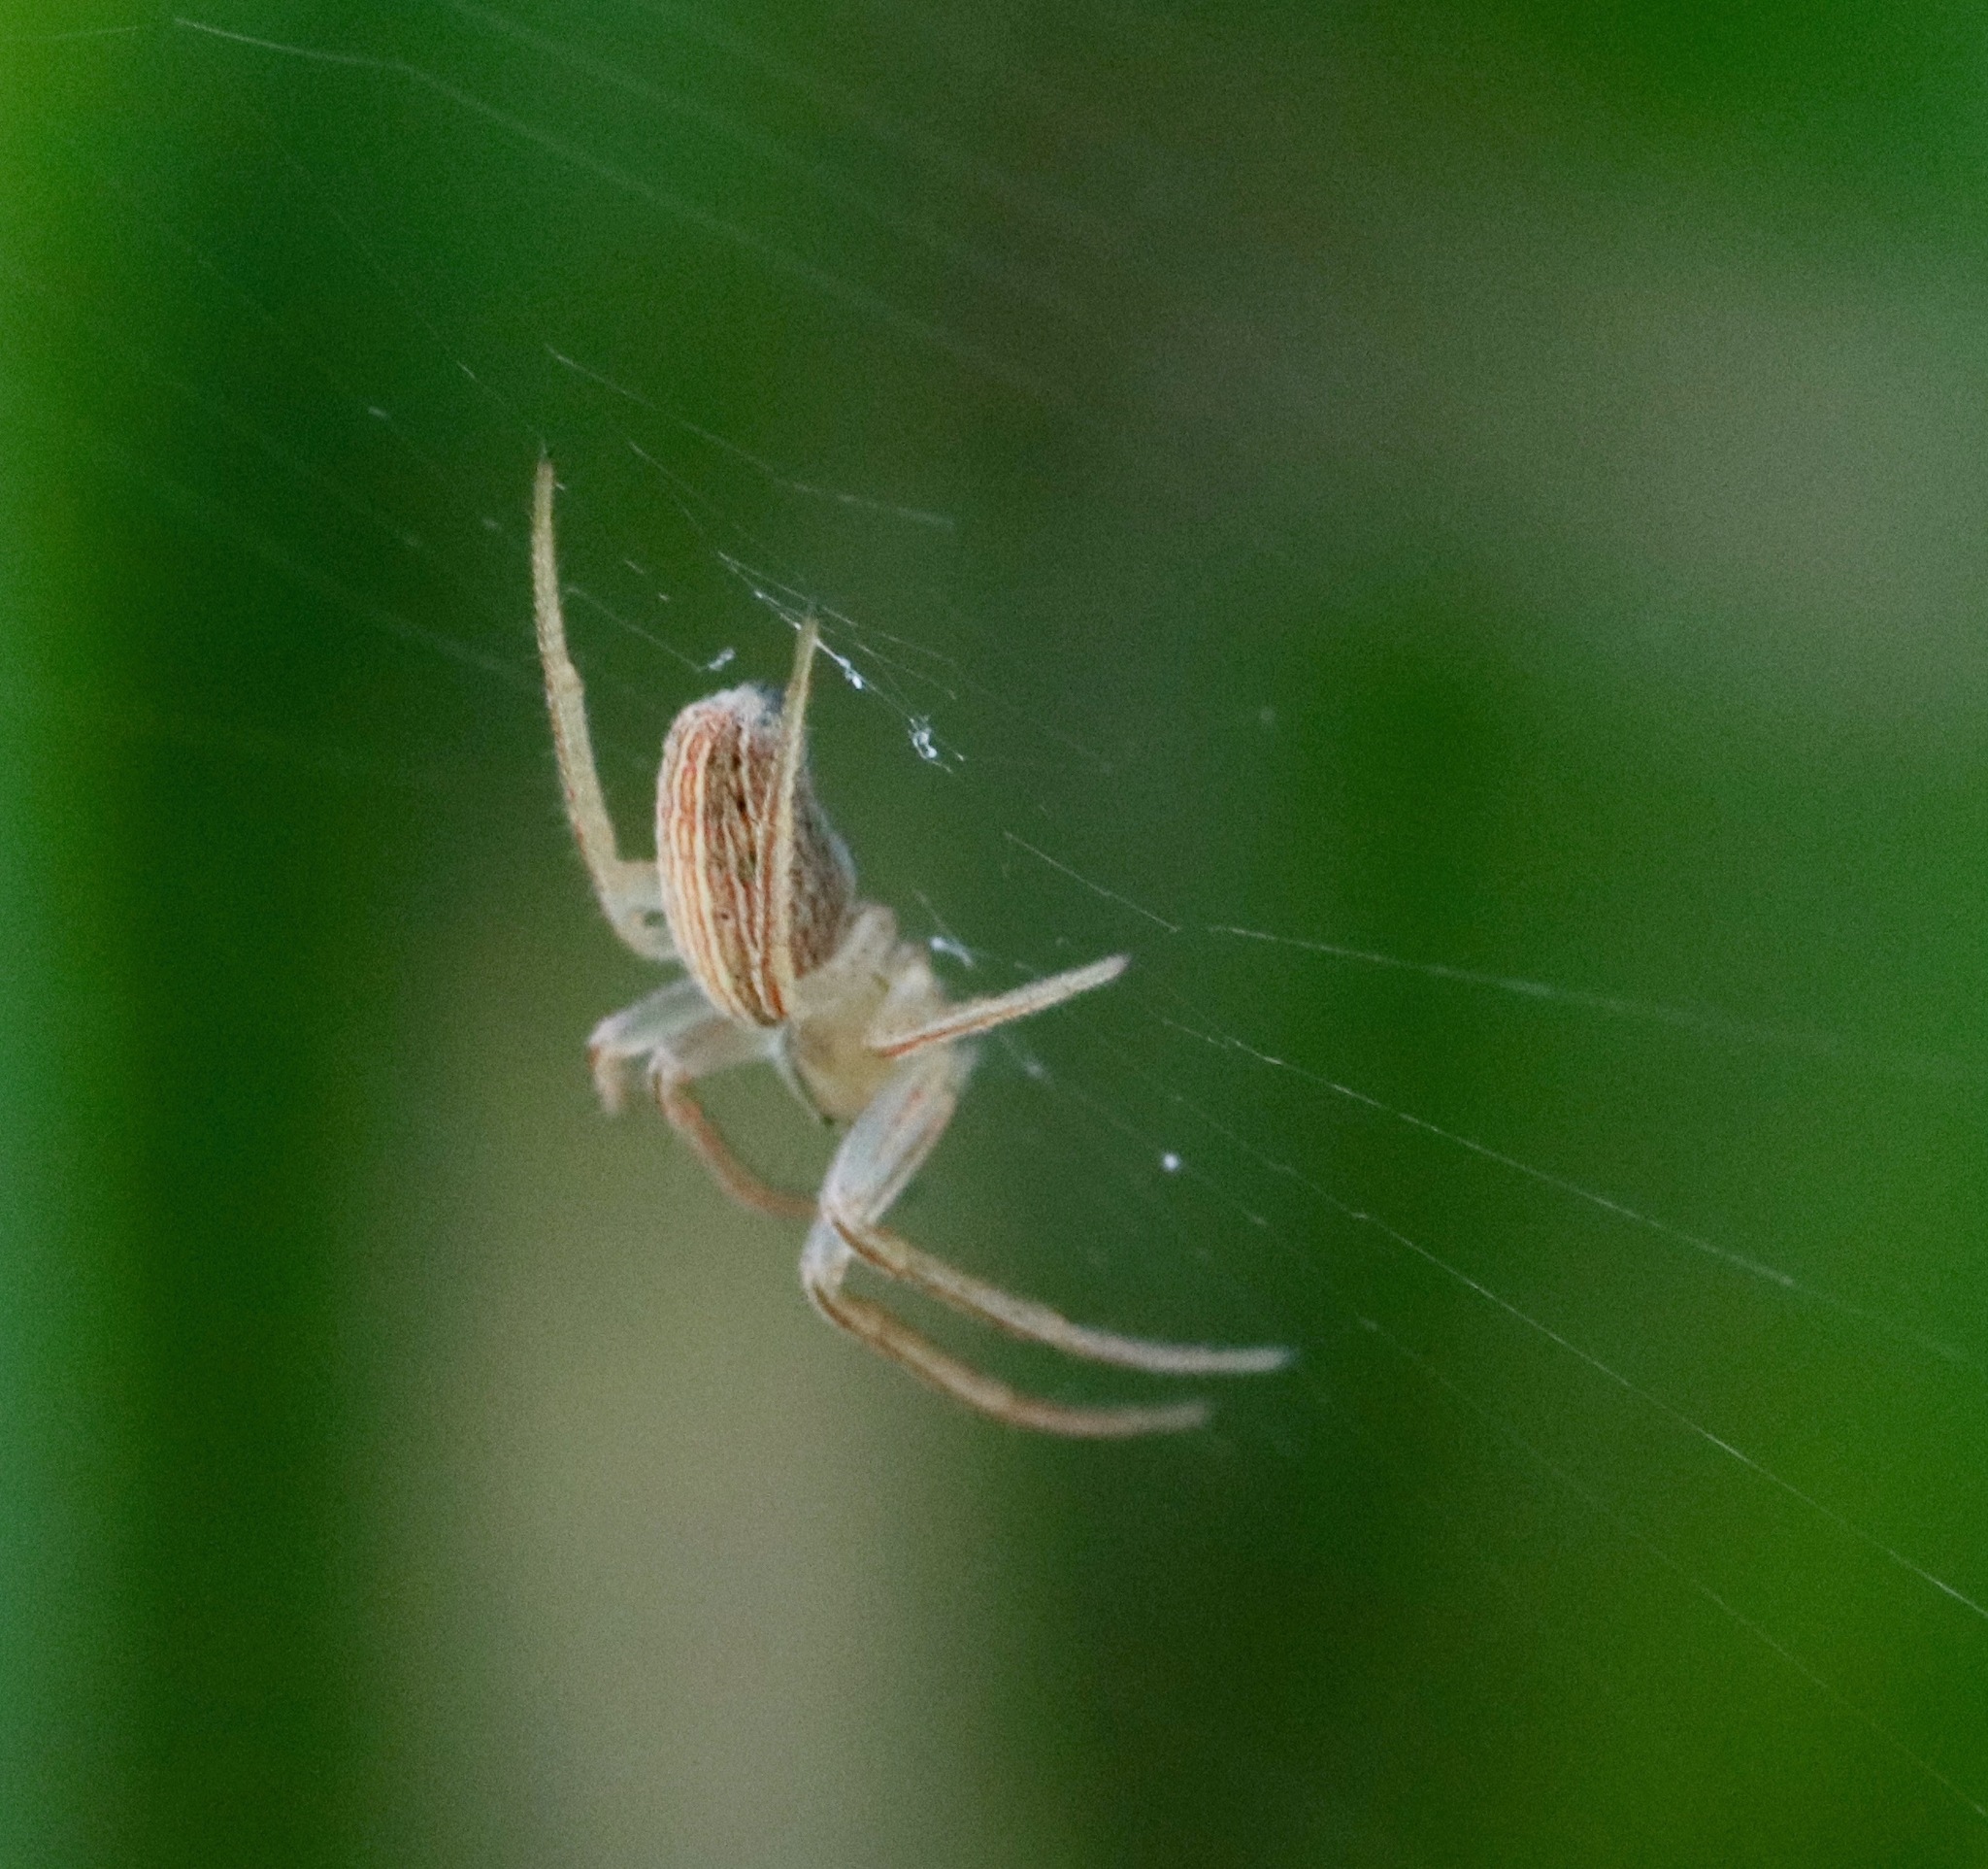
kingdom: Animalia
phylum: Arthropoda
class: Arachnida
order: Araneae
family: Araneidae
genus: Larinia
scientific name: Larinia borealis
